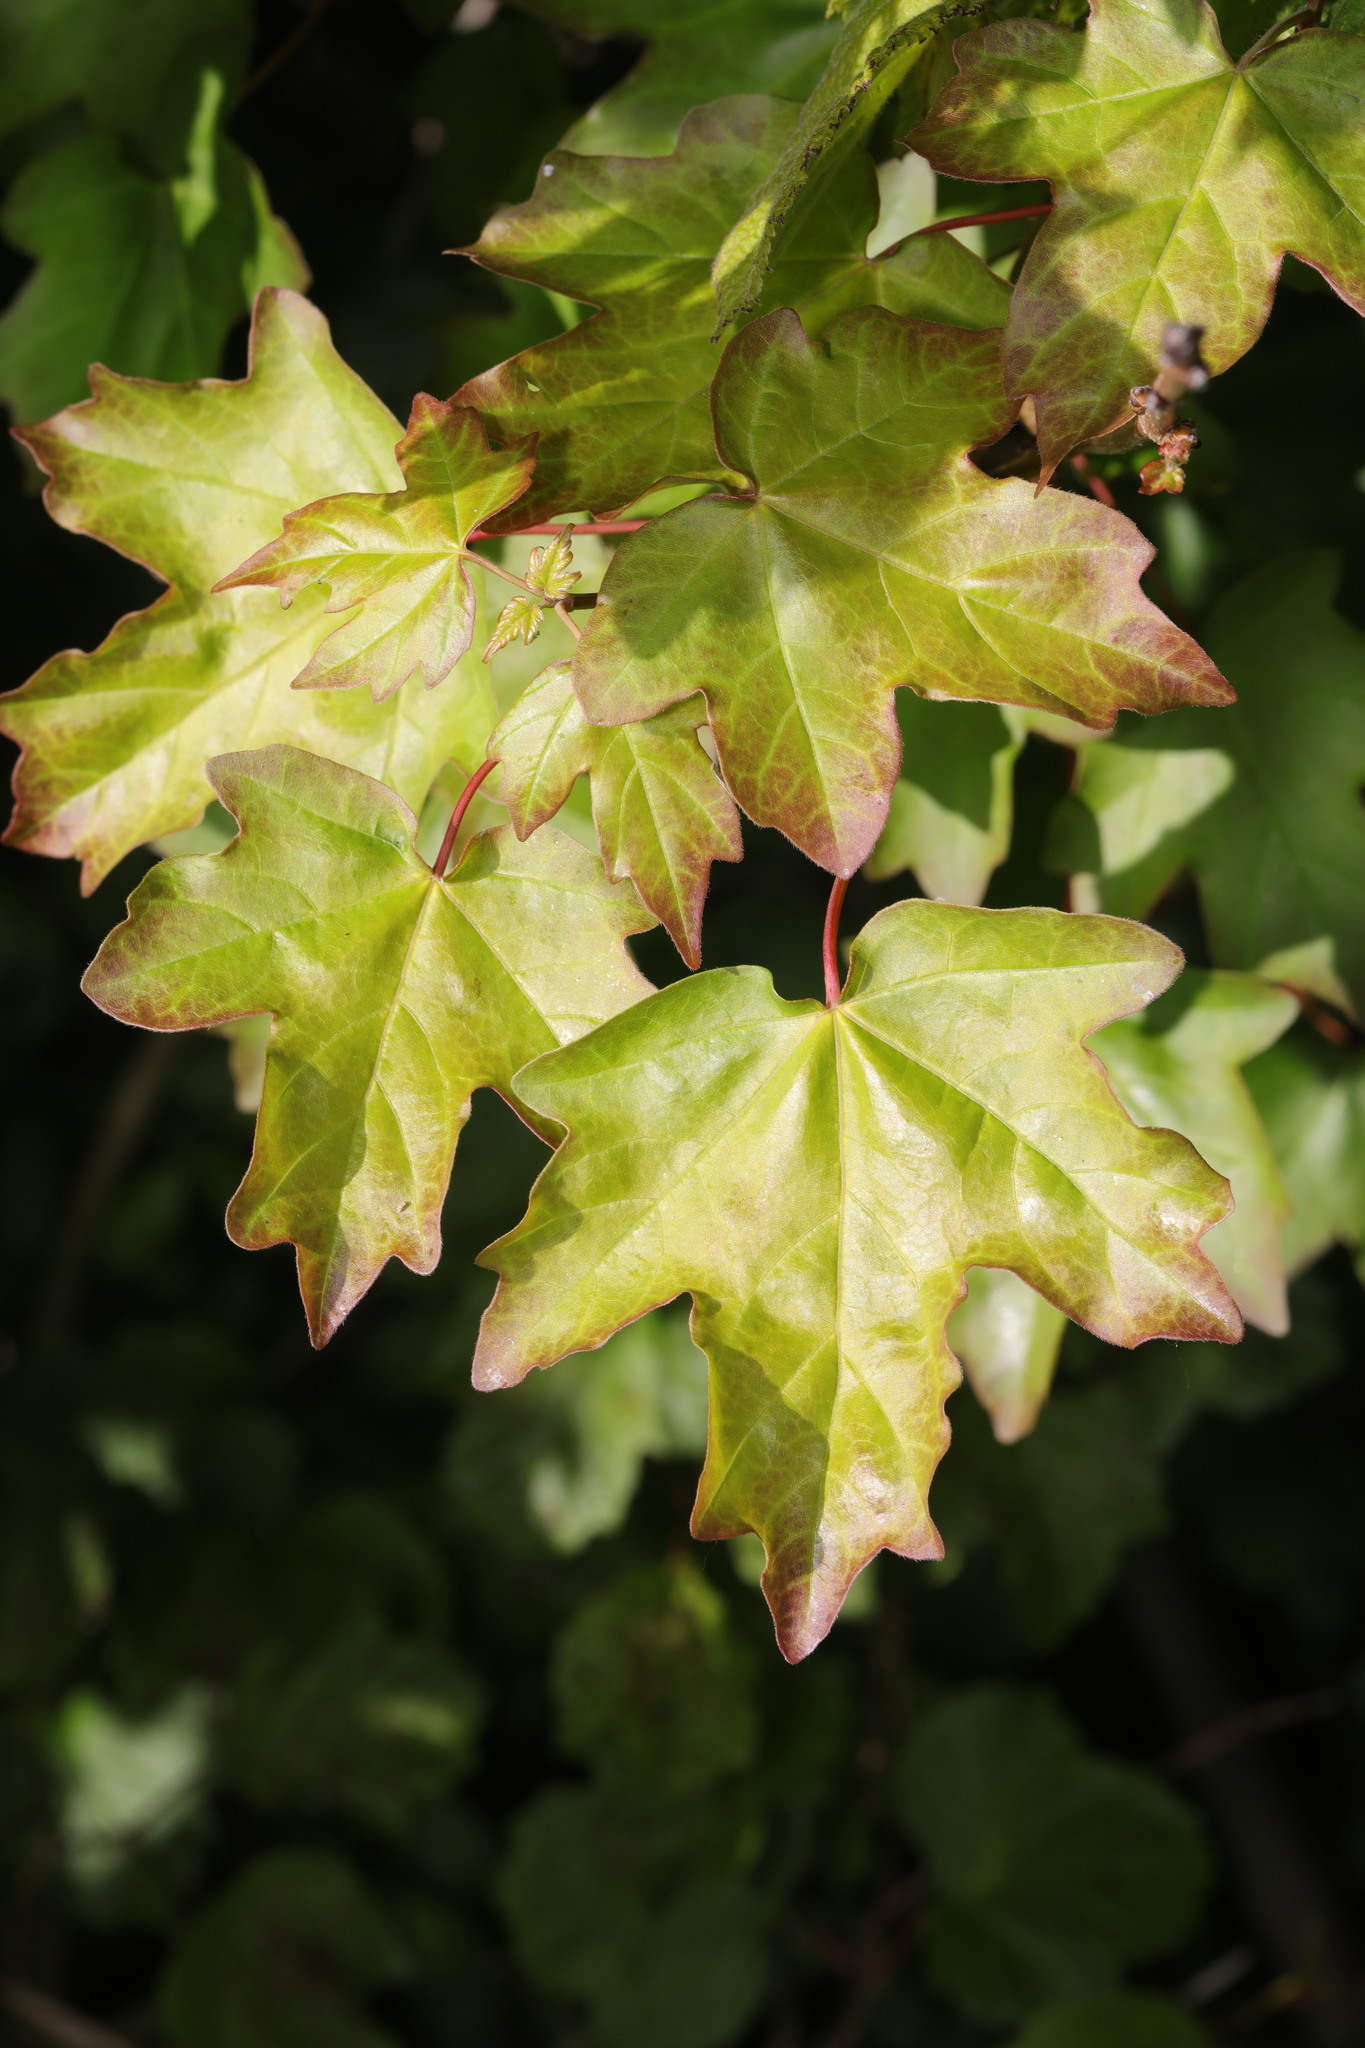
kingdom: Plantae
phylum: Tracheophyta
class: Magnoliopsida
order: Sapindales
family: Sapindaceae
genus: Acer
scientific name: Acer campestre
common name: Field maple
